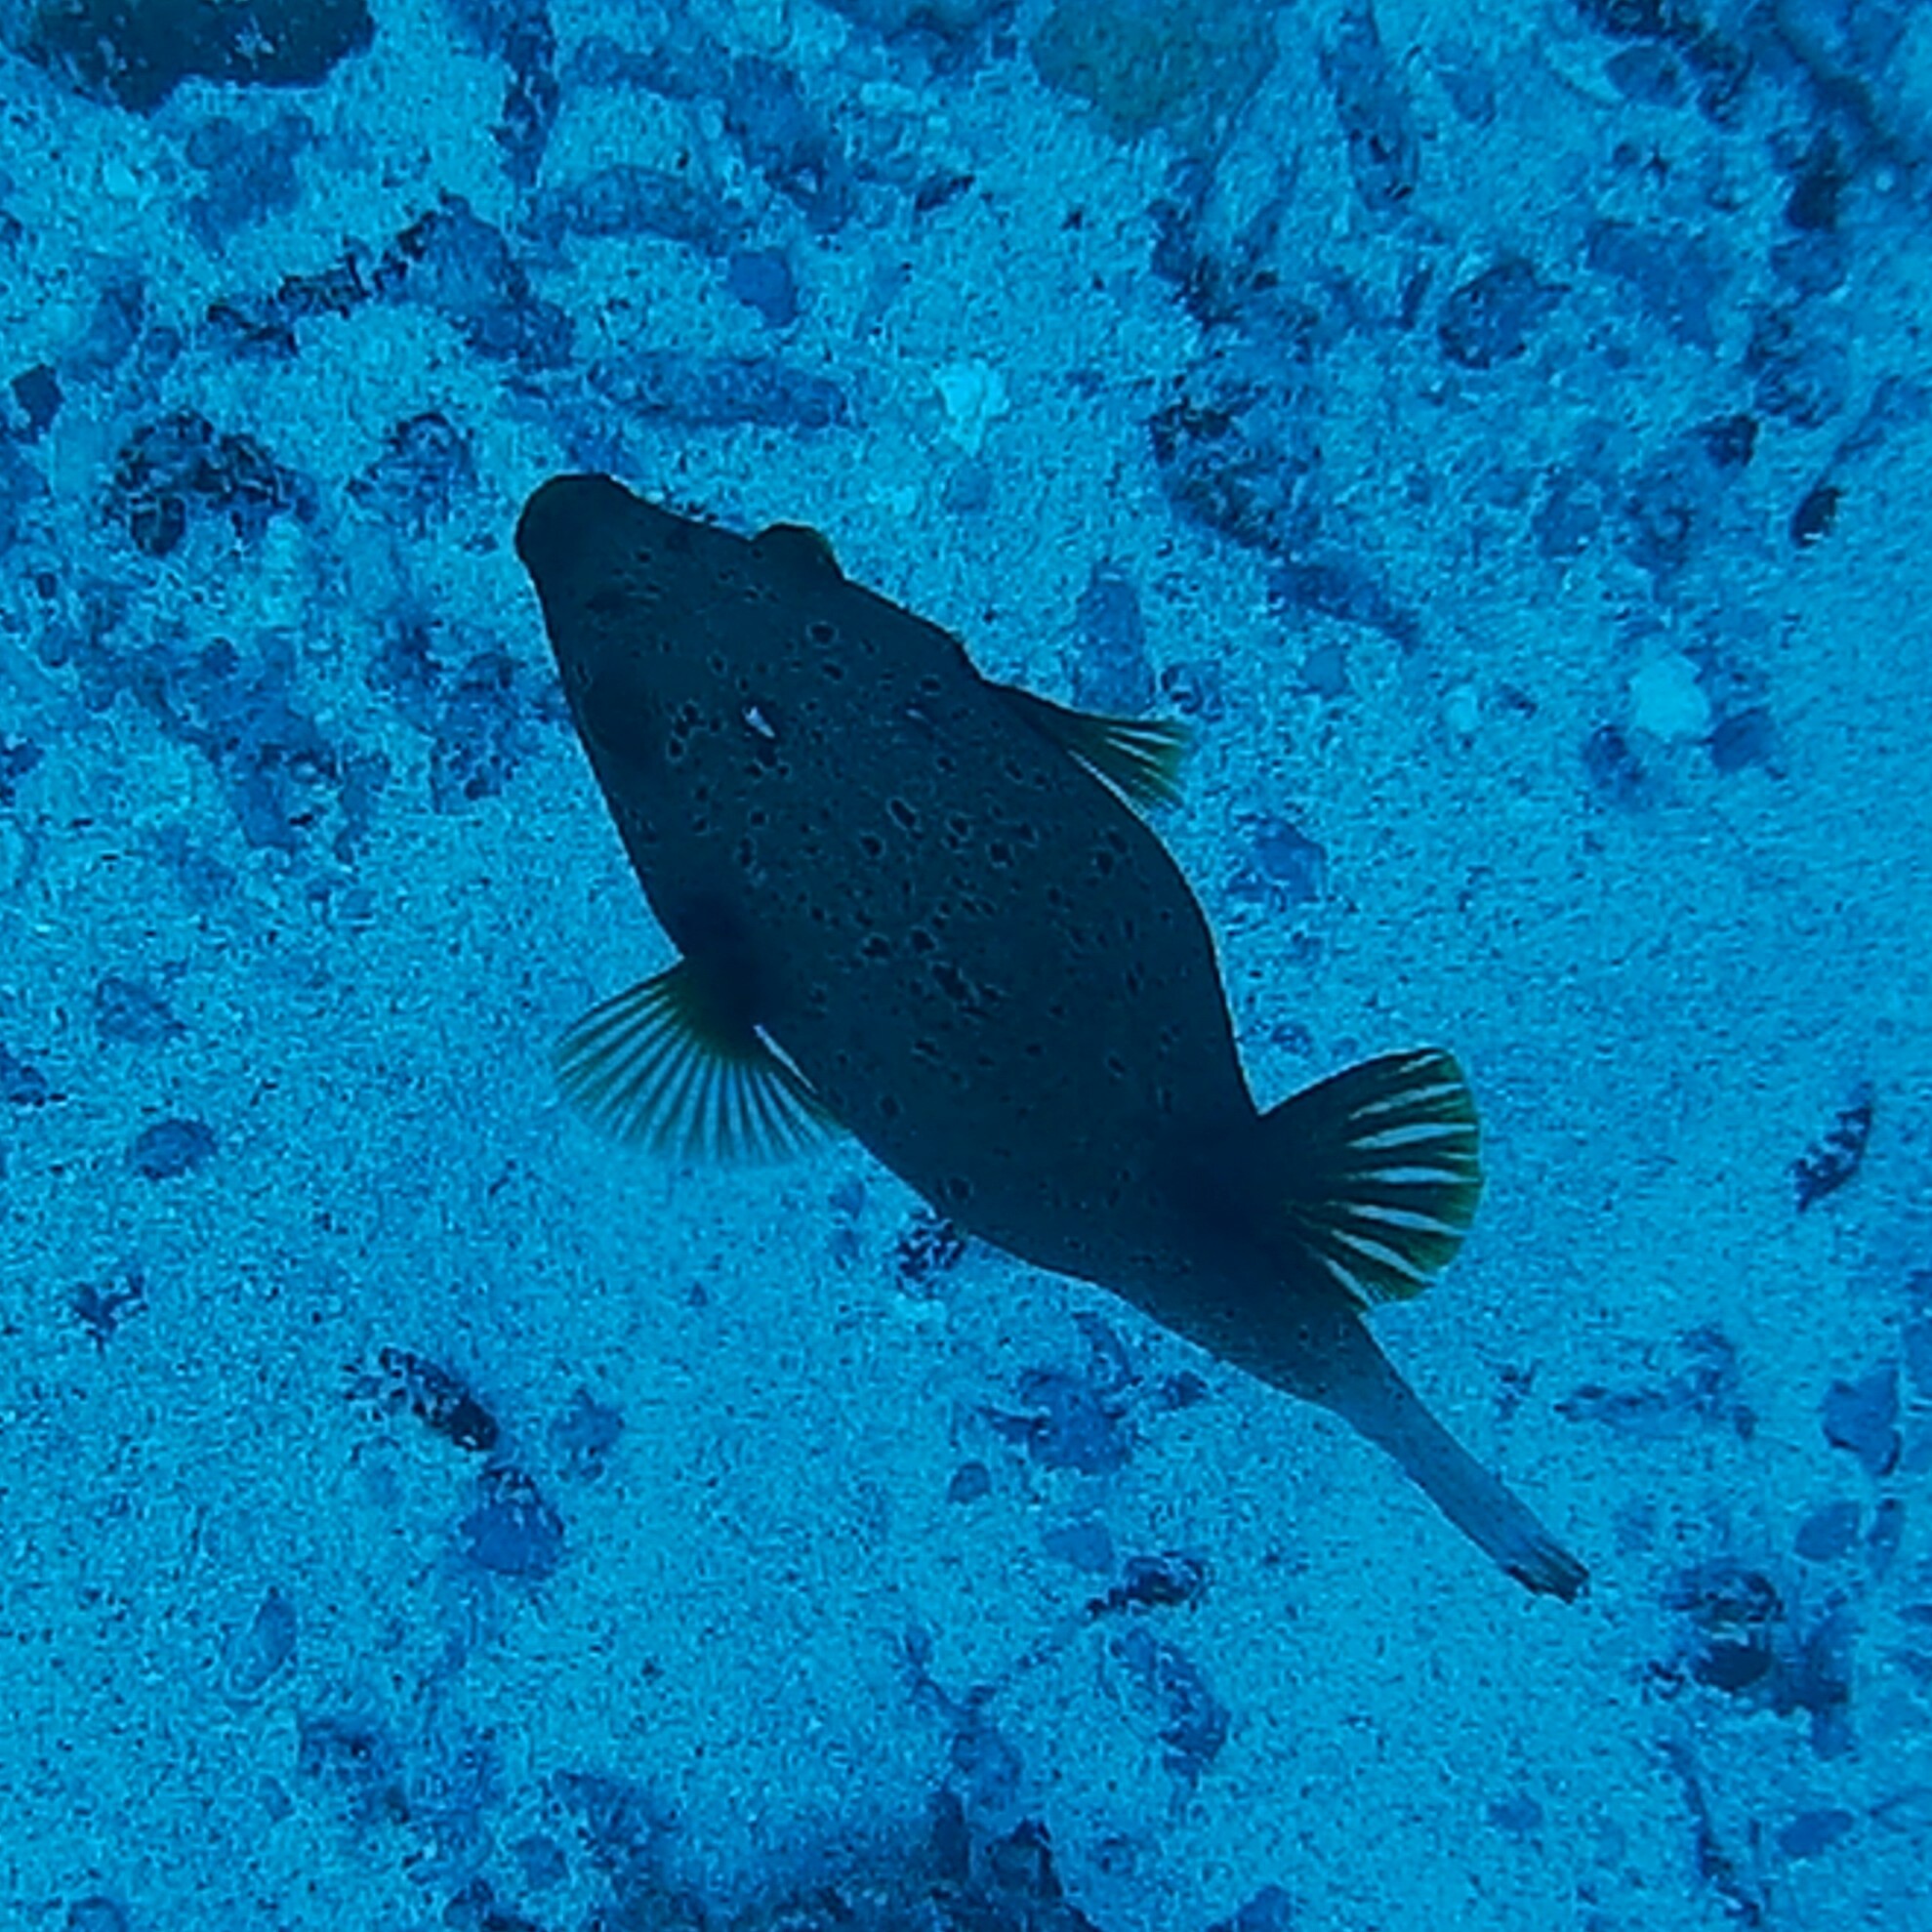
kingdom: Animalia
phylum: Chordata
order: Tetraodontiformes
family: Tetraodontidae
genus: Arothron
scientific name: Arothron nigropunctatus
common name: Black spotted blow fish
